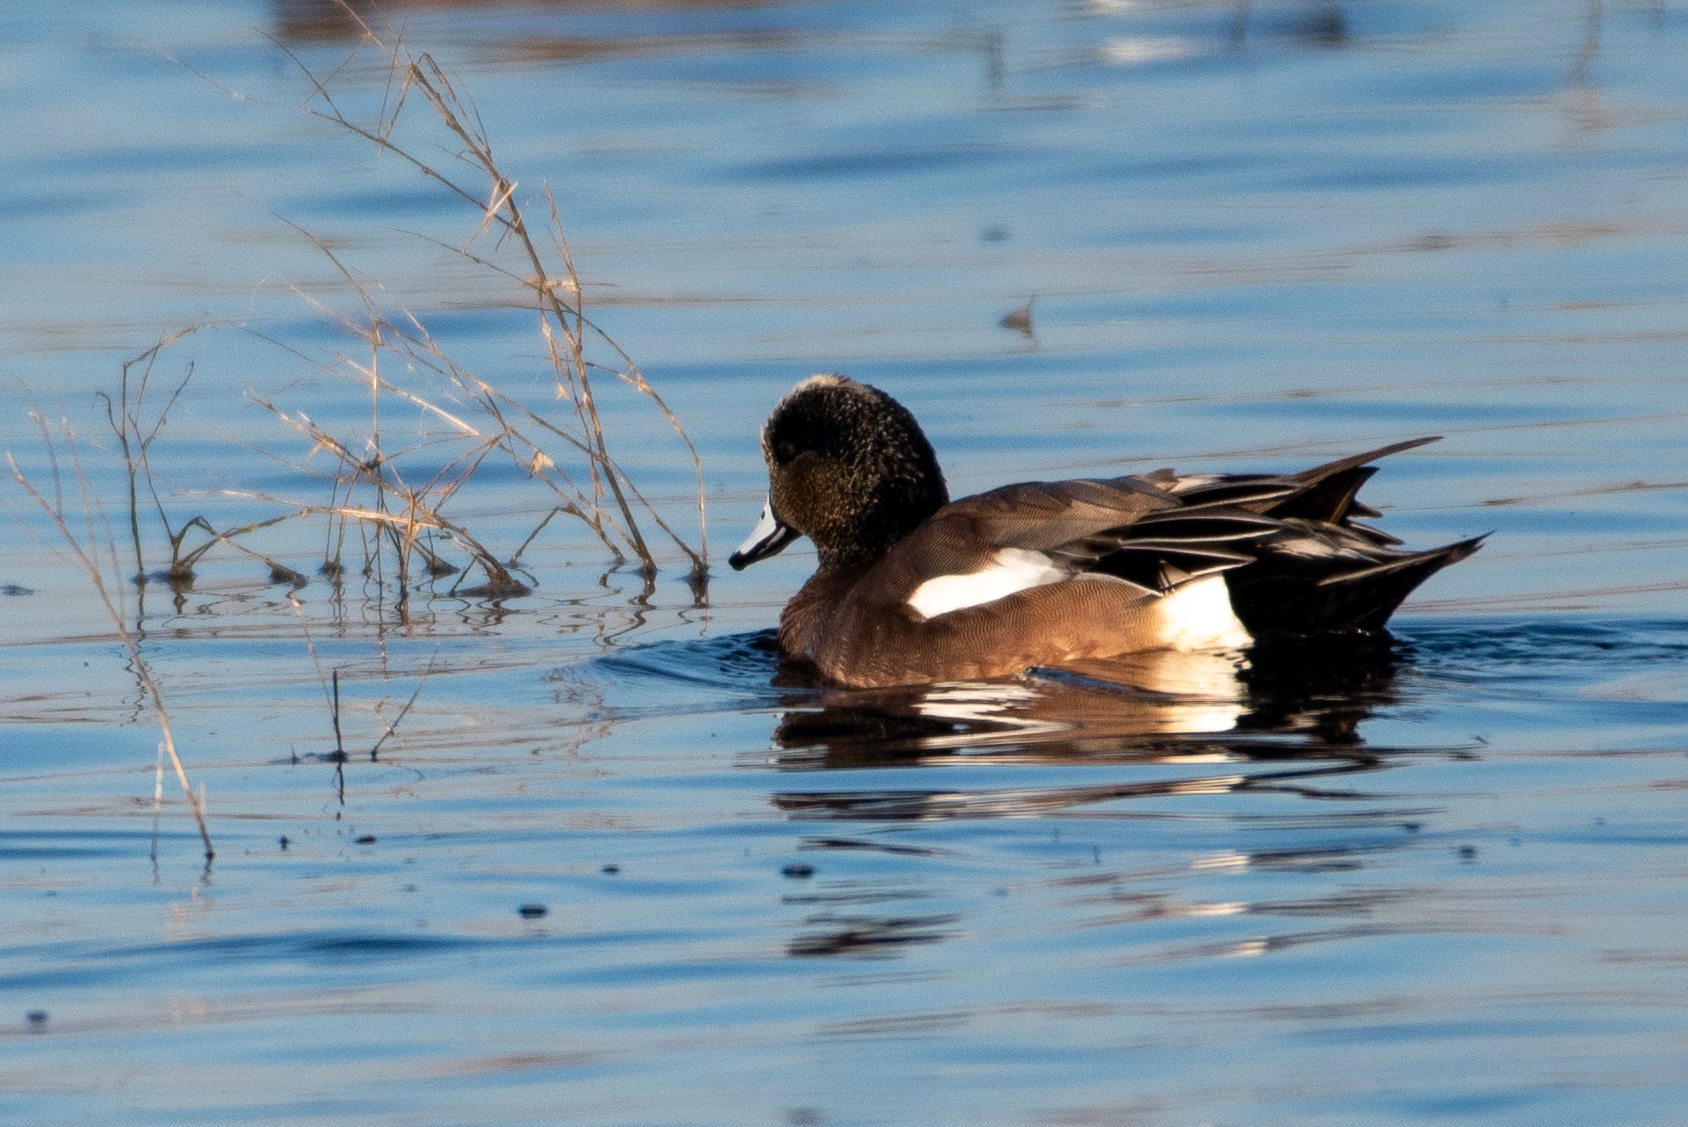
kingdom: Animalia
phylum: Chordata
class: Aves
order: Anseriformes
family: Anatidae
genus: Mareca
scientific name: Mareca americana
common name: American wigeon
